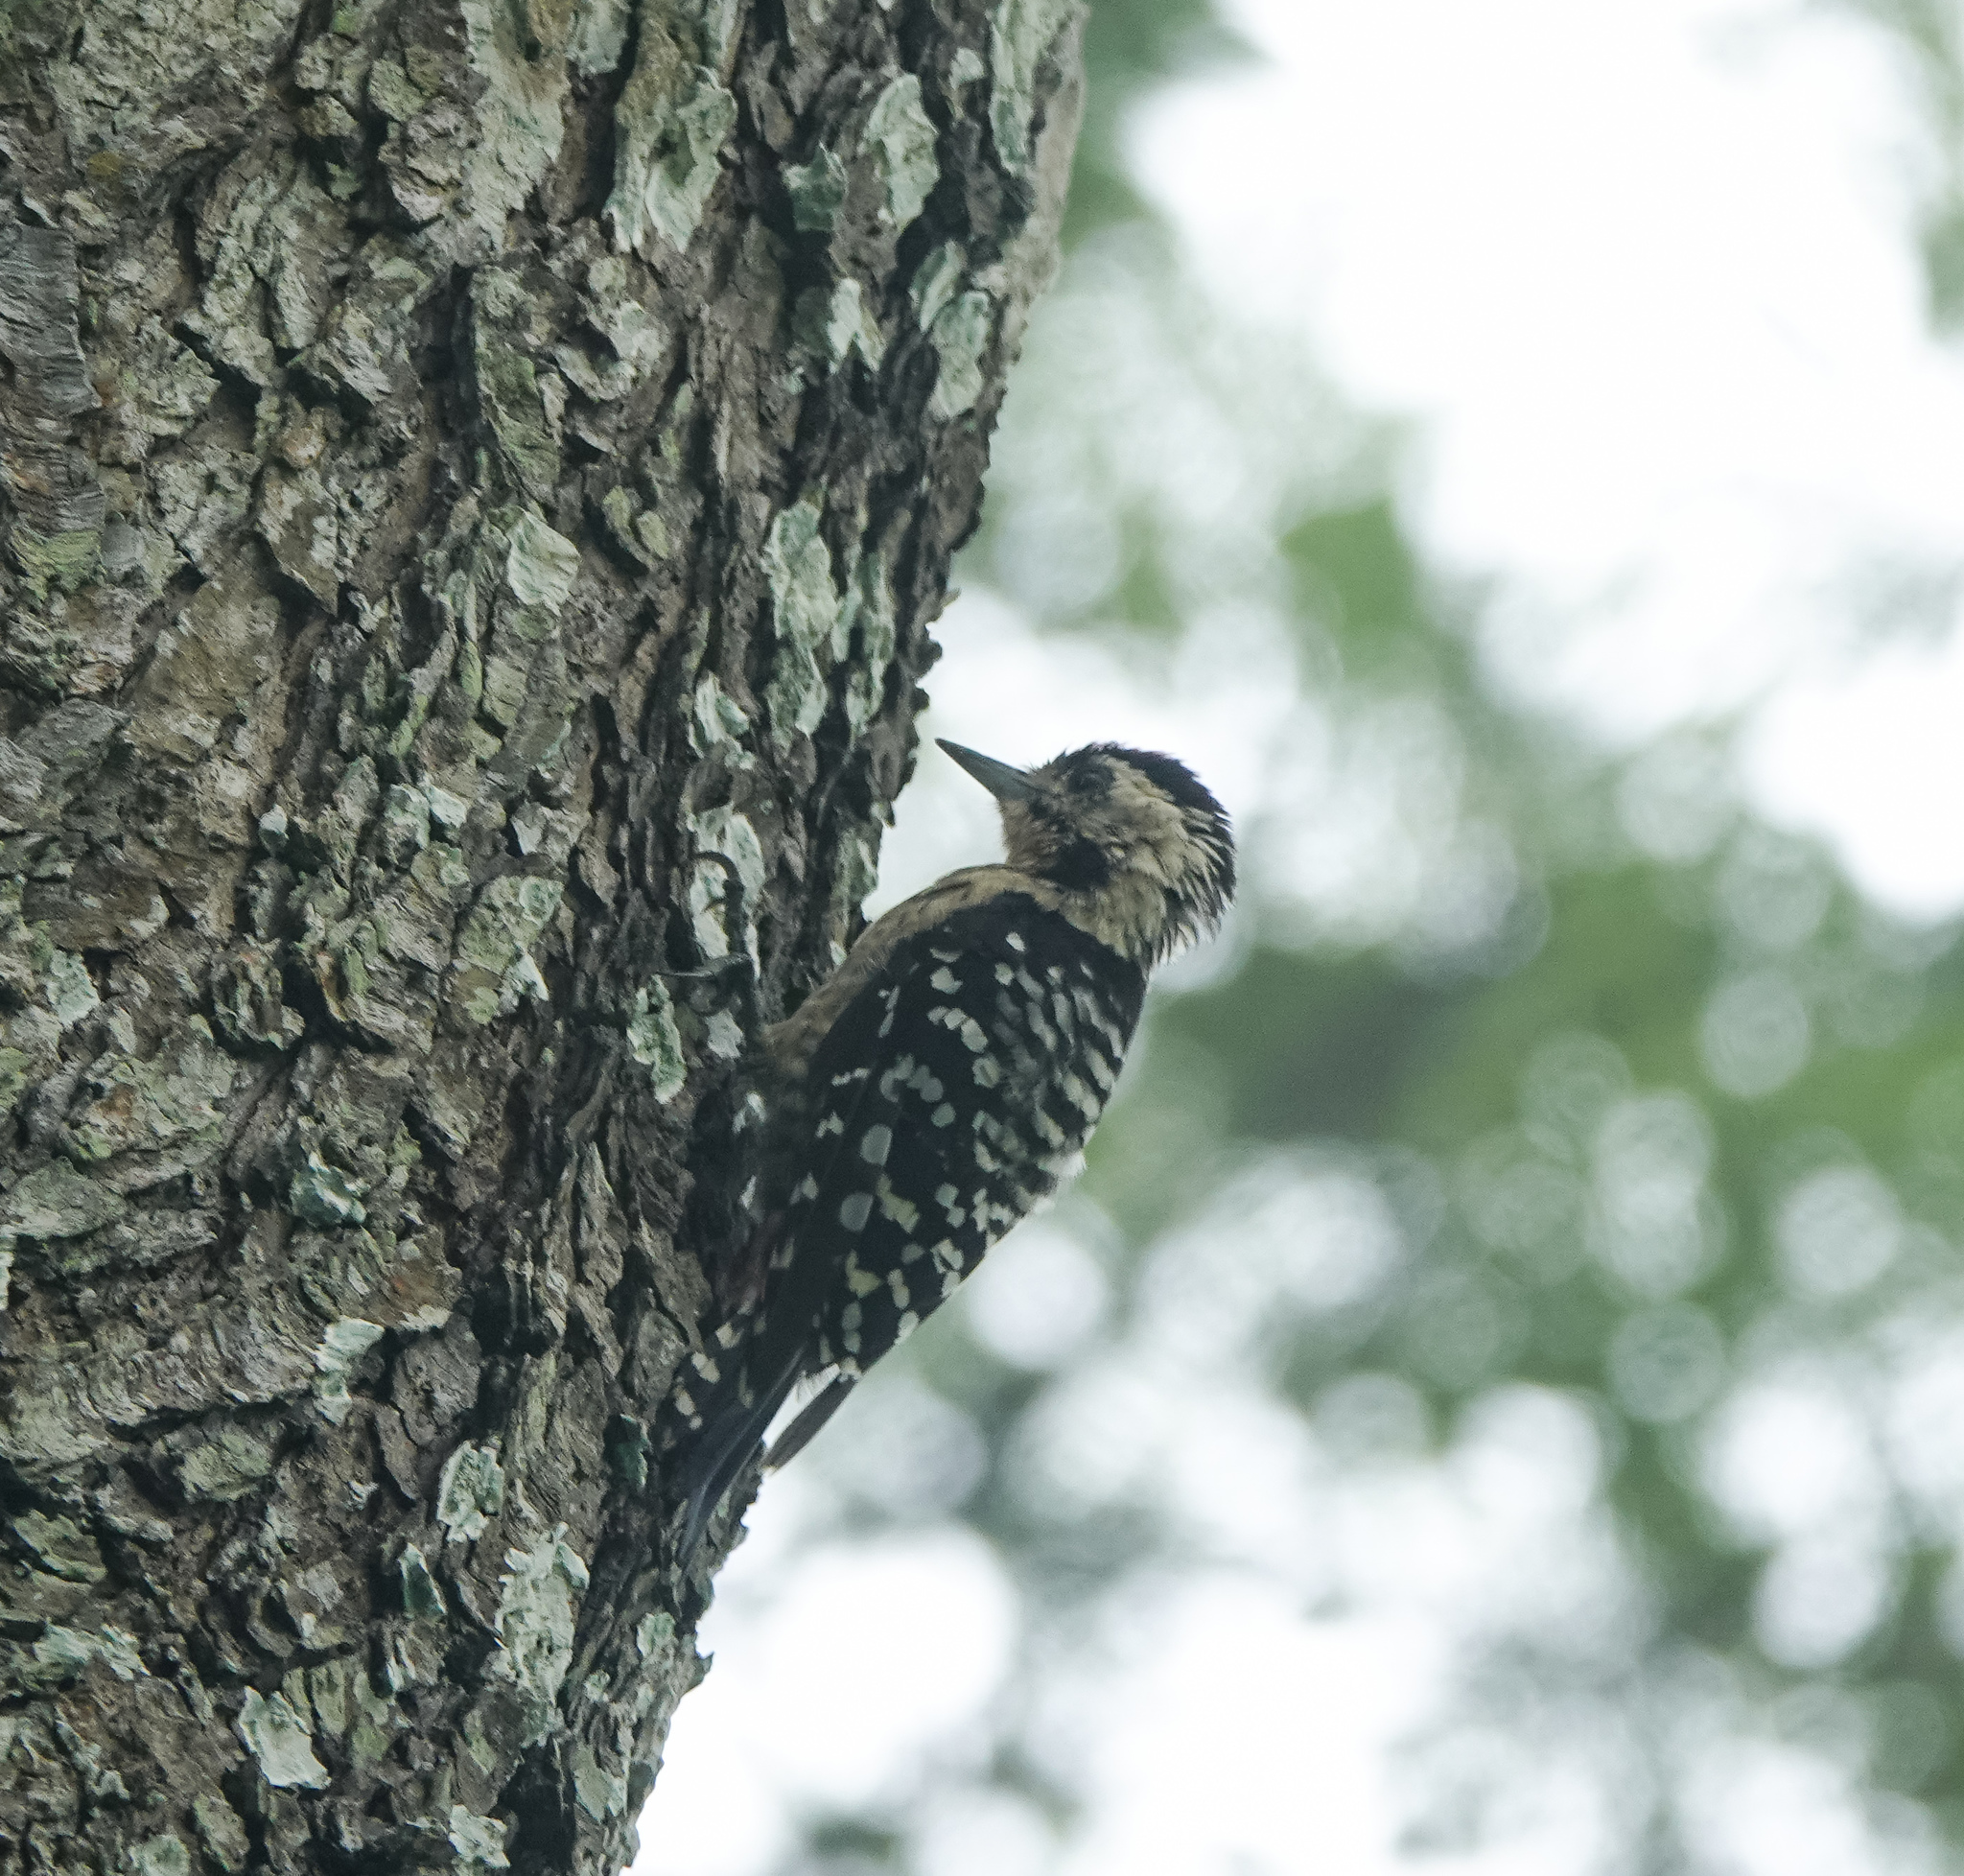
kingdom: Animalia
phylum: Chordata
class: Aves
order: Piciformes
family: Picidae
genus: Dendrocopos
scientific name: Dendrocopos macei
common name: Fulvous-breasted woodpecker
